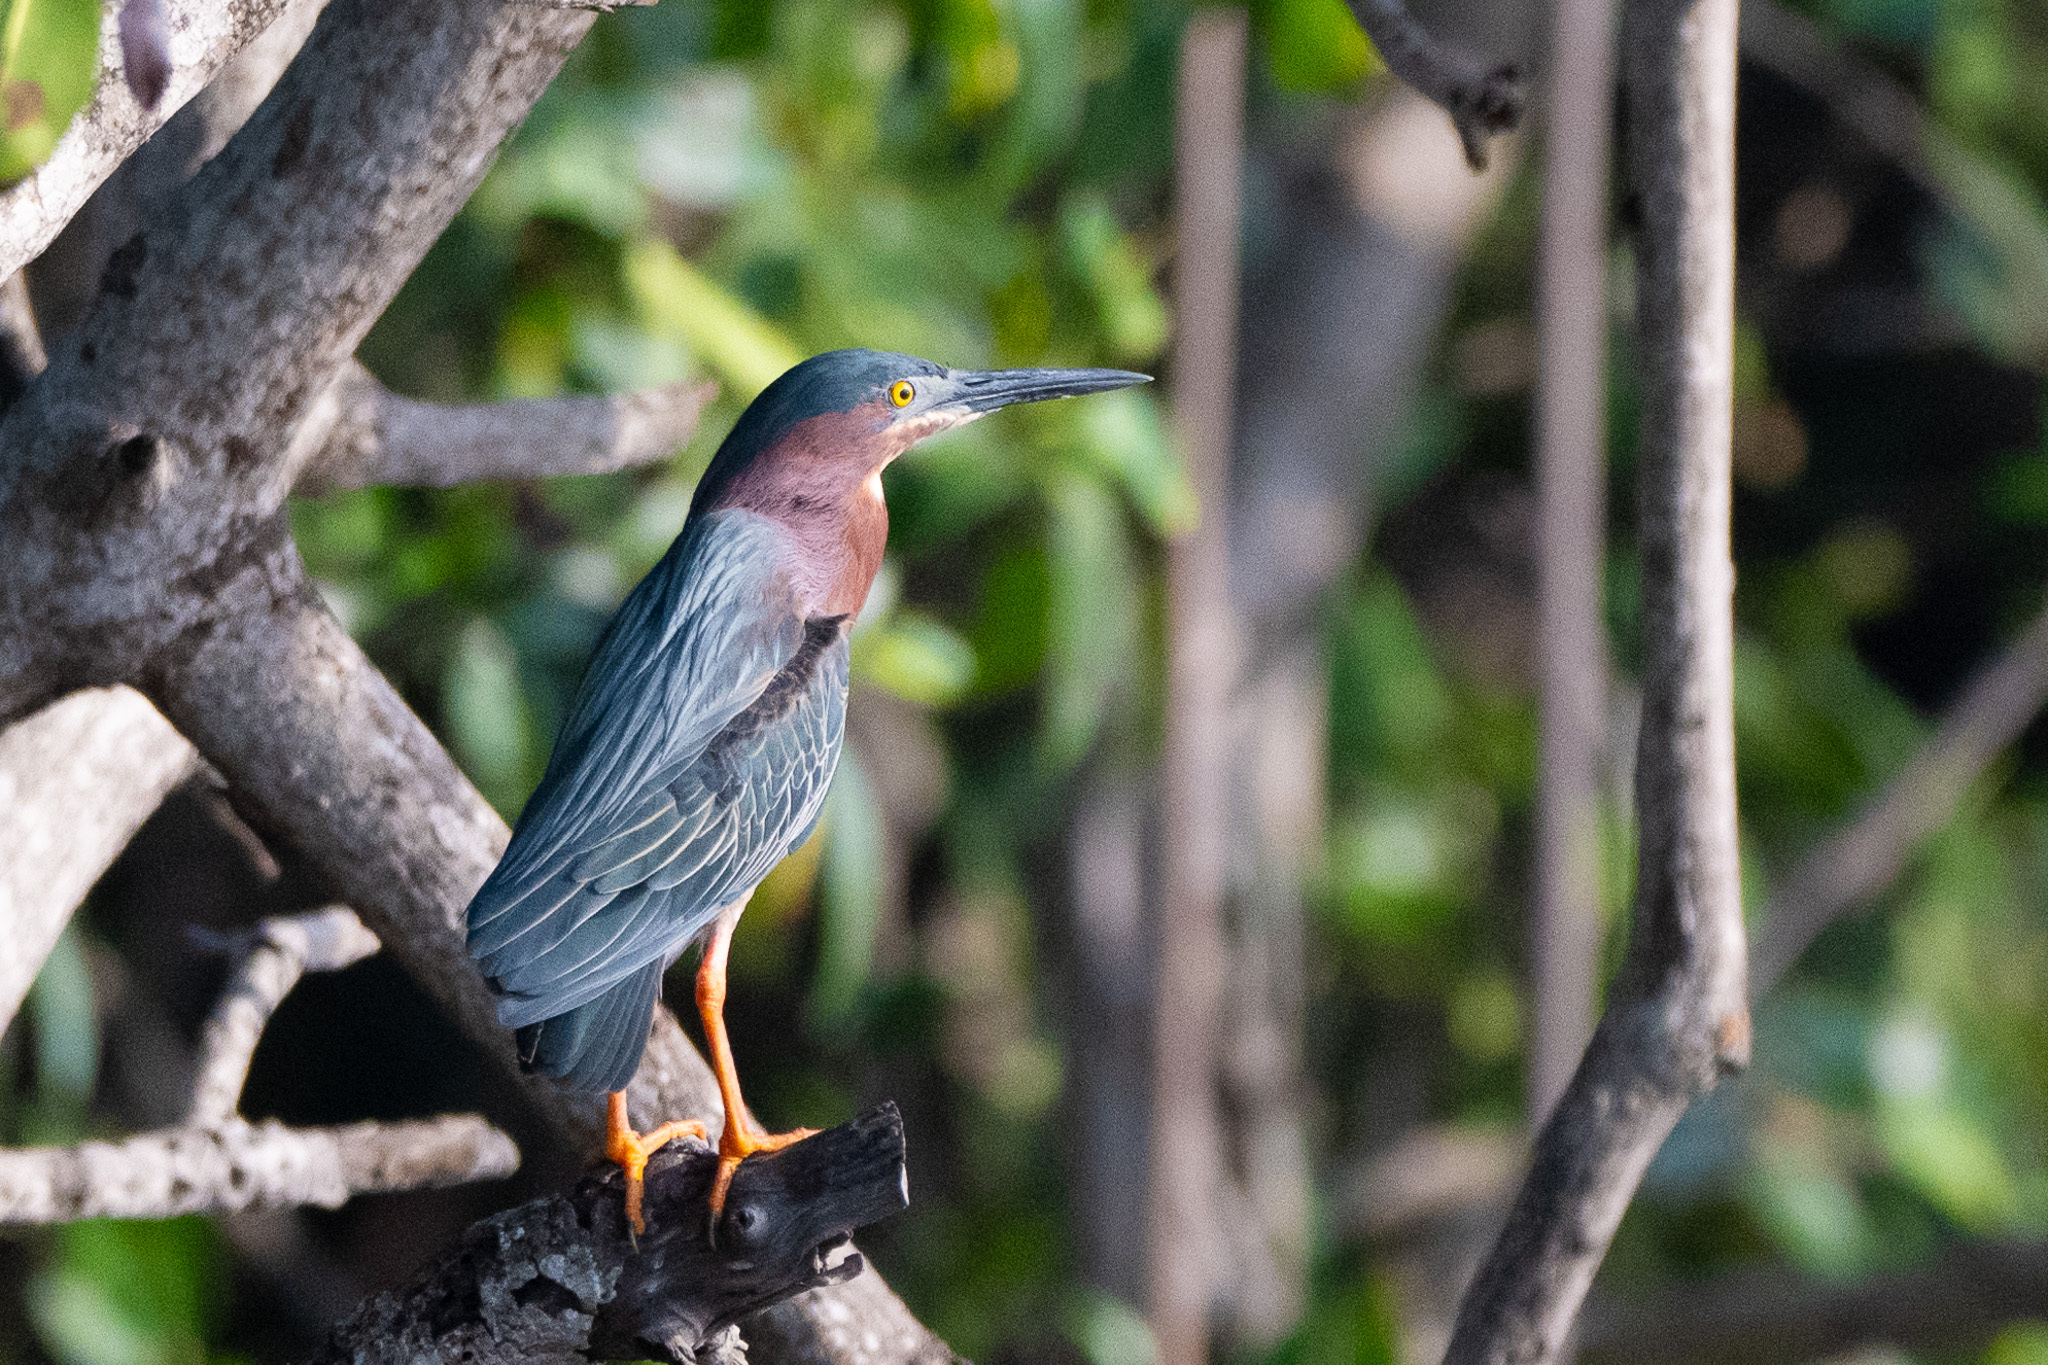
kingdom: Animalia
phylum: Chordata
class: Aves
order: Pelecaniformes
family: Ardeidae
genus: Butorides
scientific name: Butorides virescens
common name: Green heron
